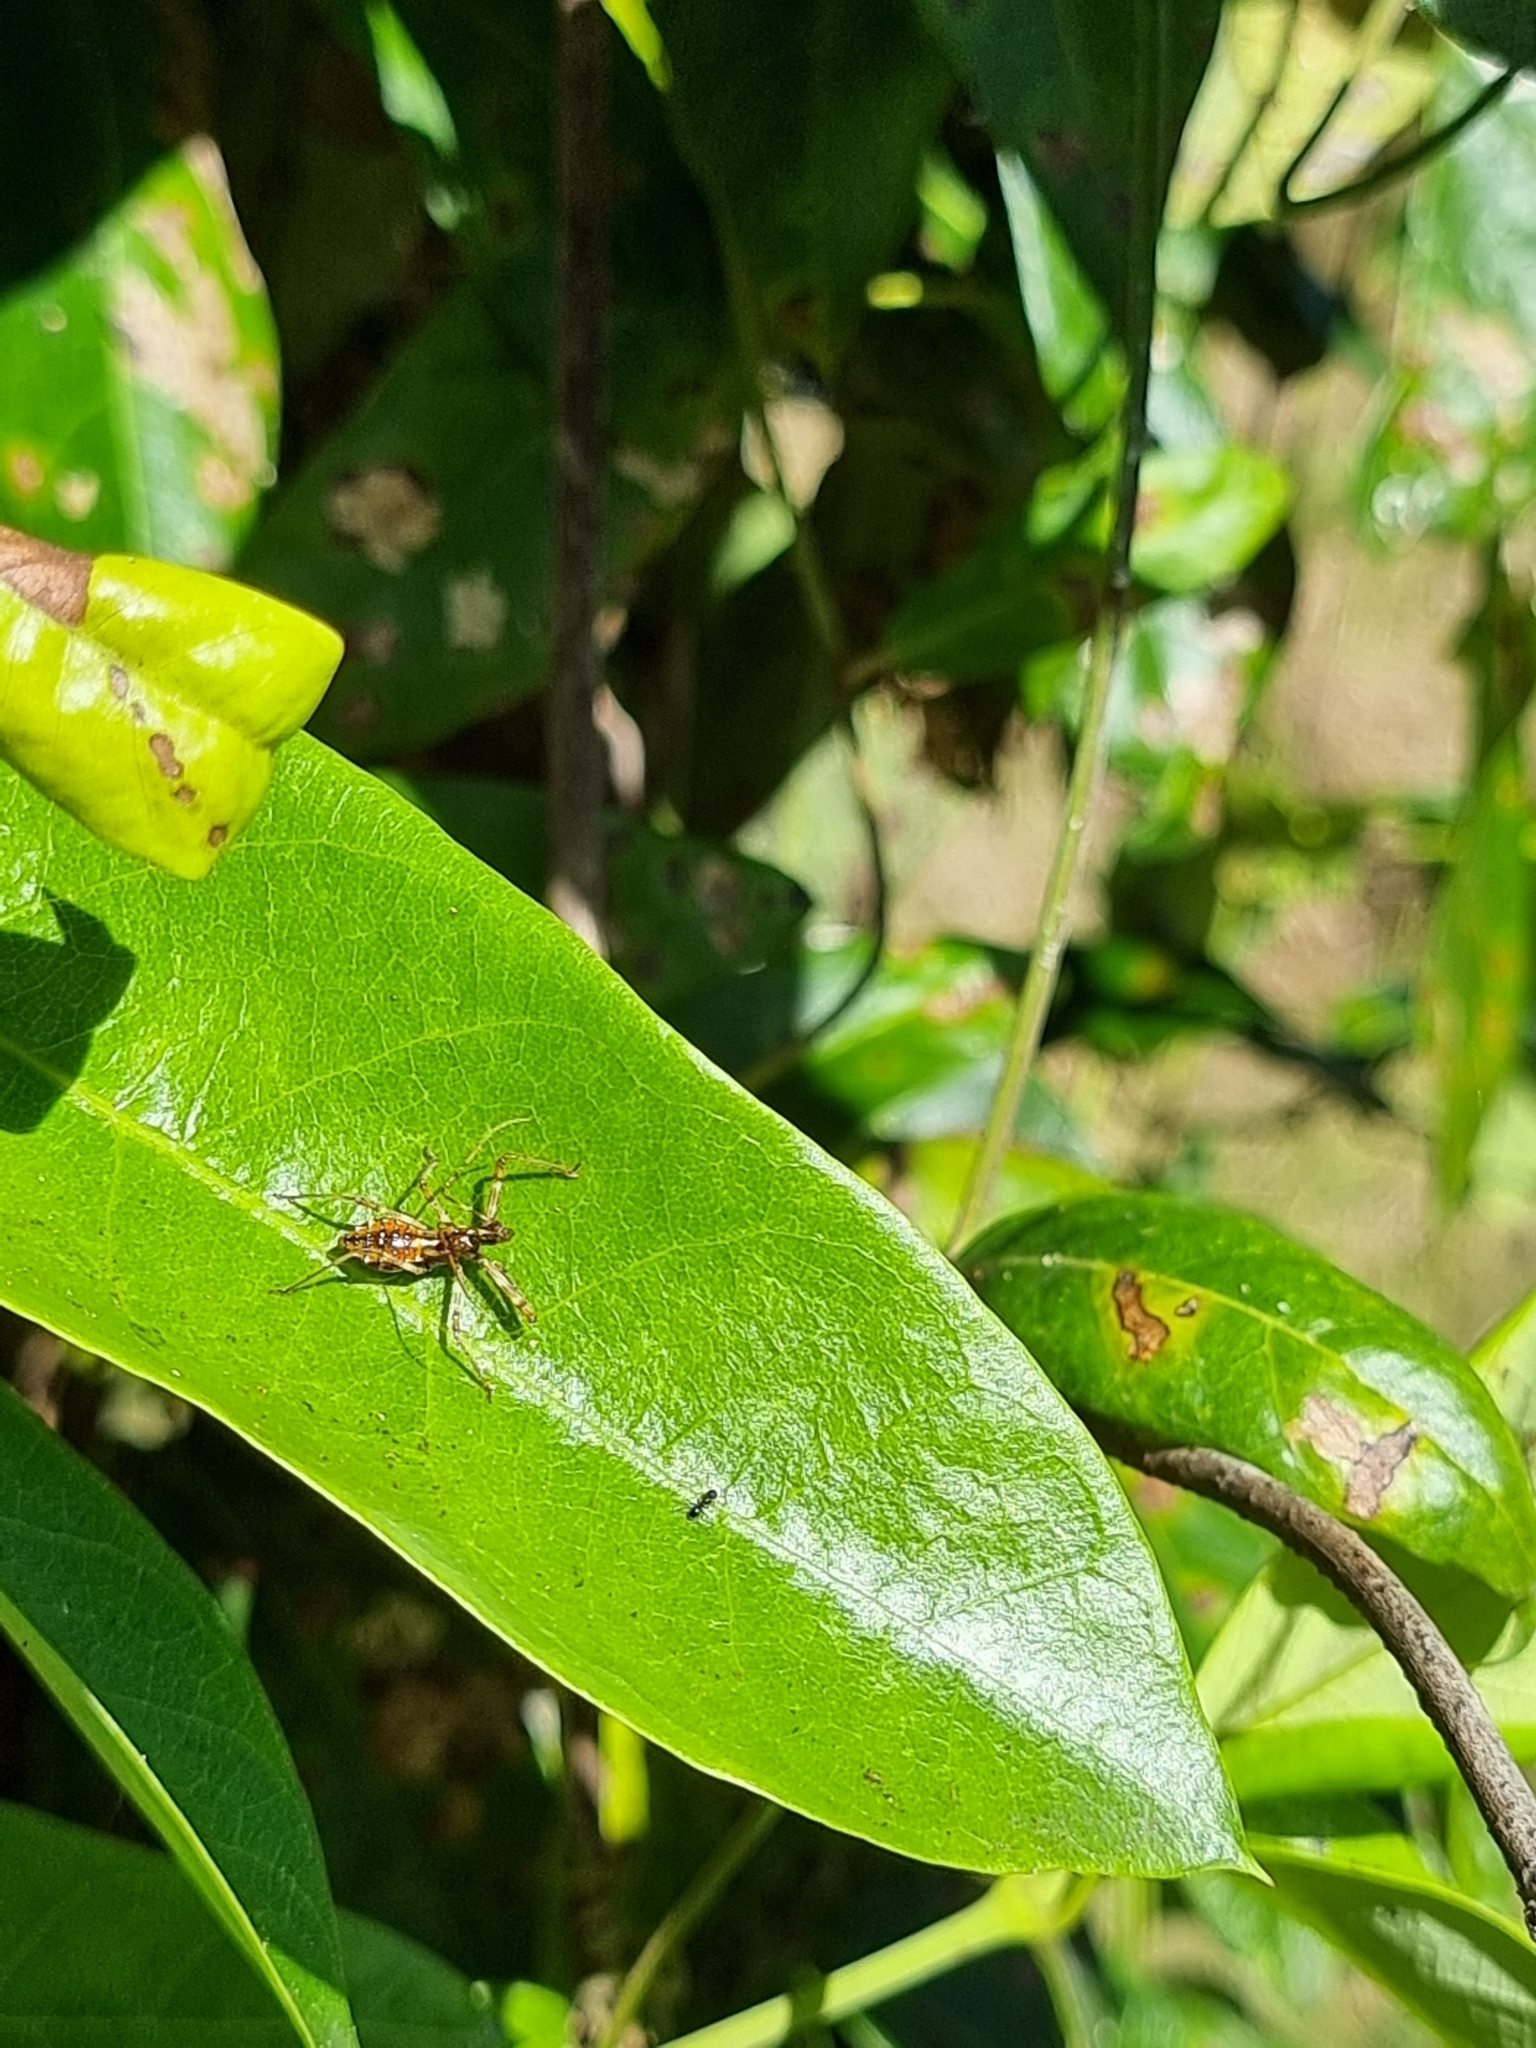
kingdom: Animalia
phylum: Arthropoda
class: Insecta
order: Hemiptera
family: Reduviidae
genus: Pristhesancus
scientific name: Pristhesancus plagipennis
